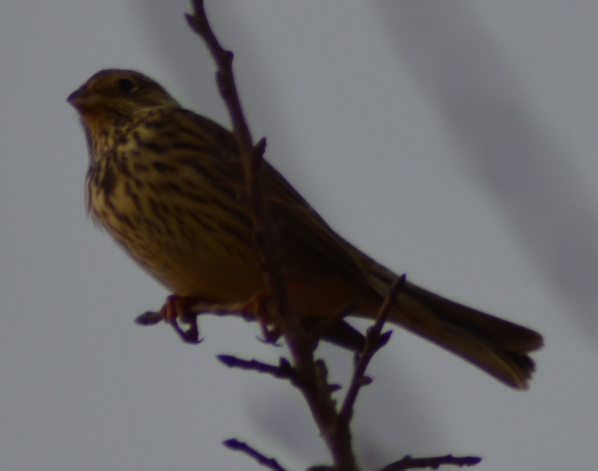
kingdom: Animalia
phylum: Chordata
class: Aves
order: Passeriformes
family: Emberizidae
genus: Emberiza
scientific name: Emberiza calandra
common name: Corn bunting
